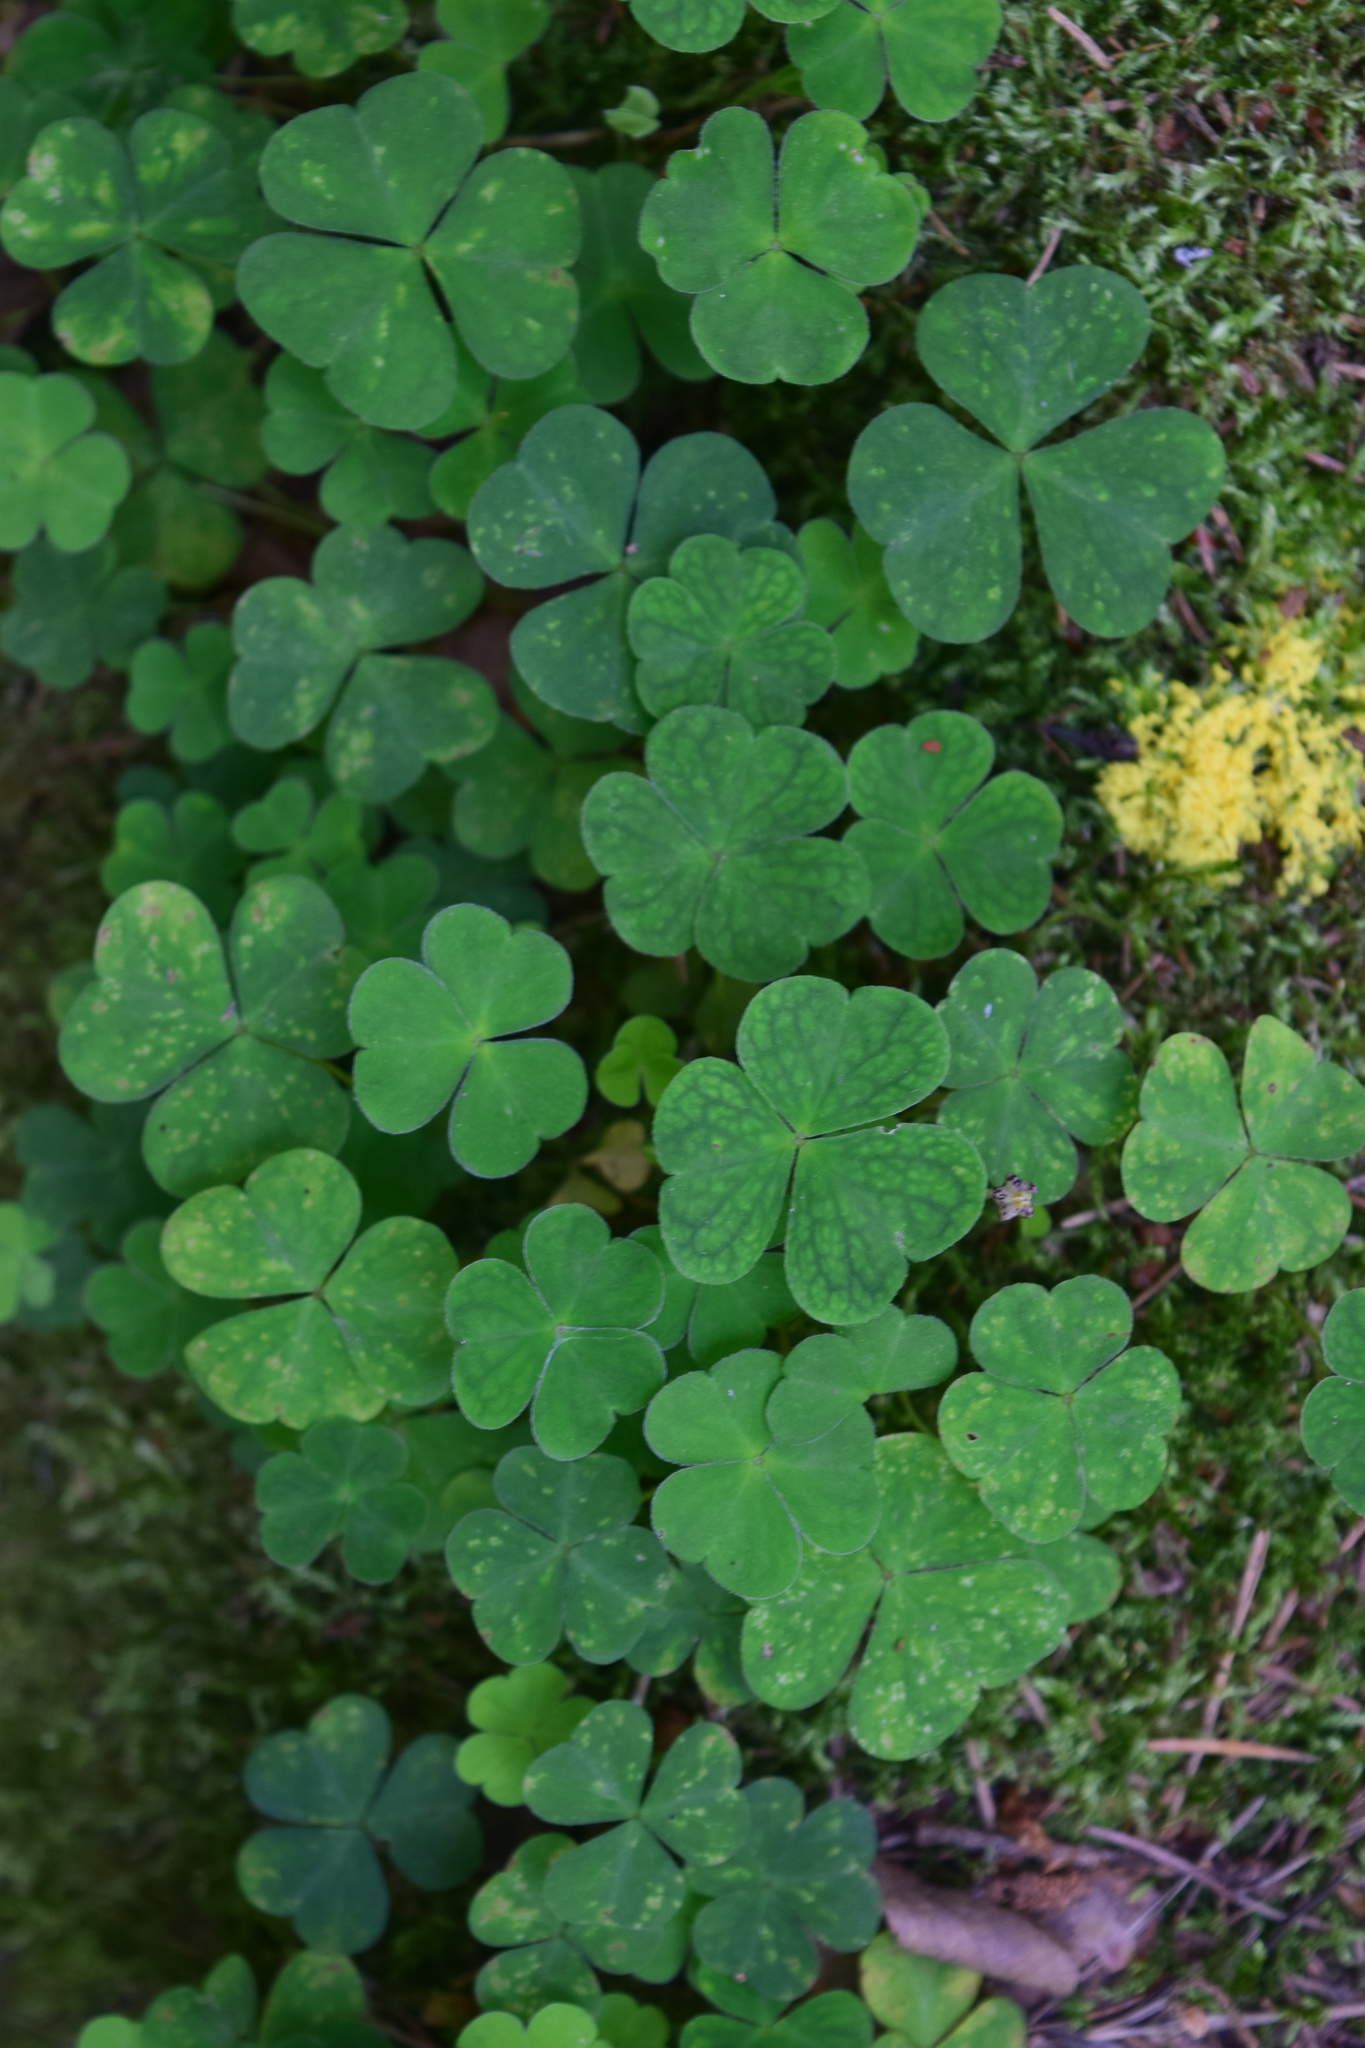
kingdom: Plantae
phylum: Tracheophyta
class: Magnoliopsida
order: Oxalidales
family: Oxalidaceae
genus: Oxalis
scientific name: Oxalis acetosella
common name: Wood-sorrel
